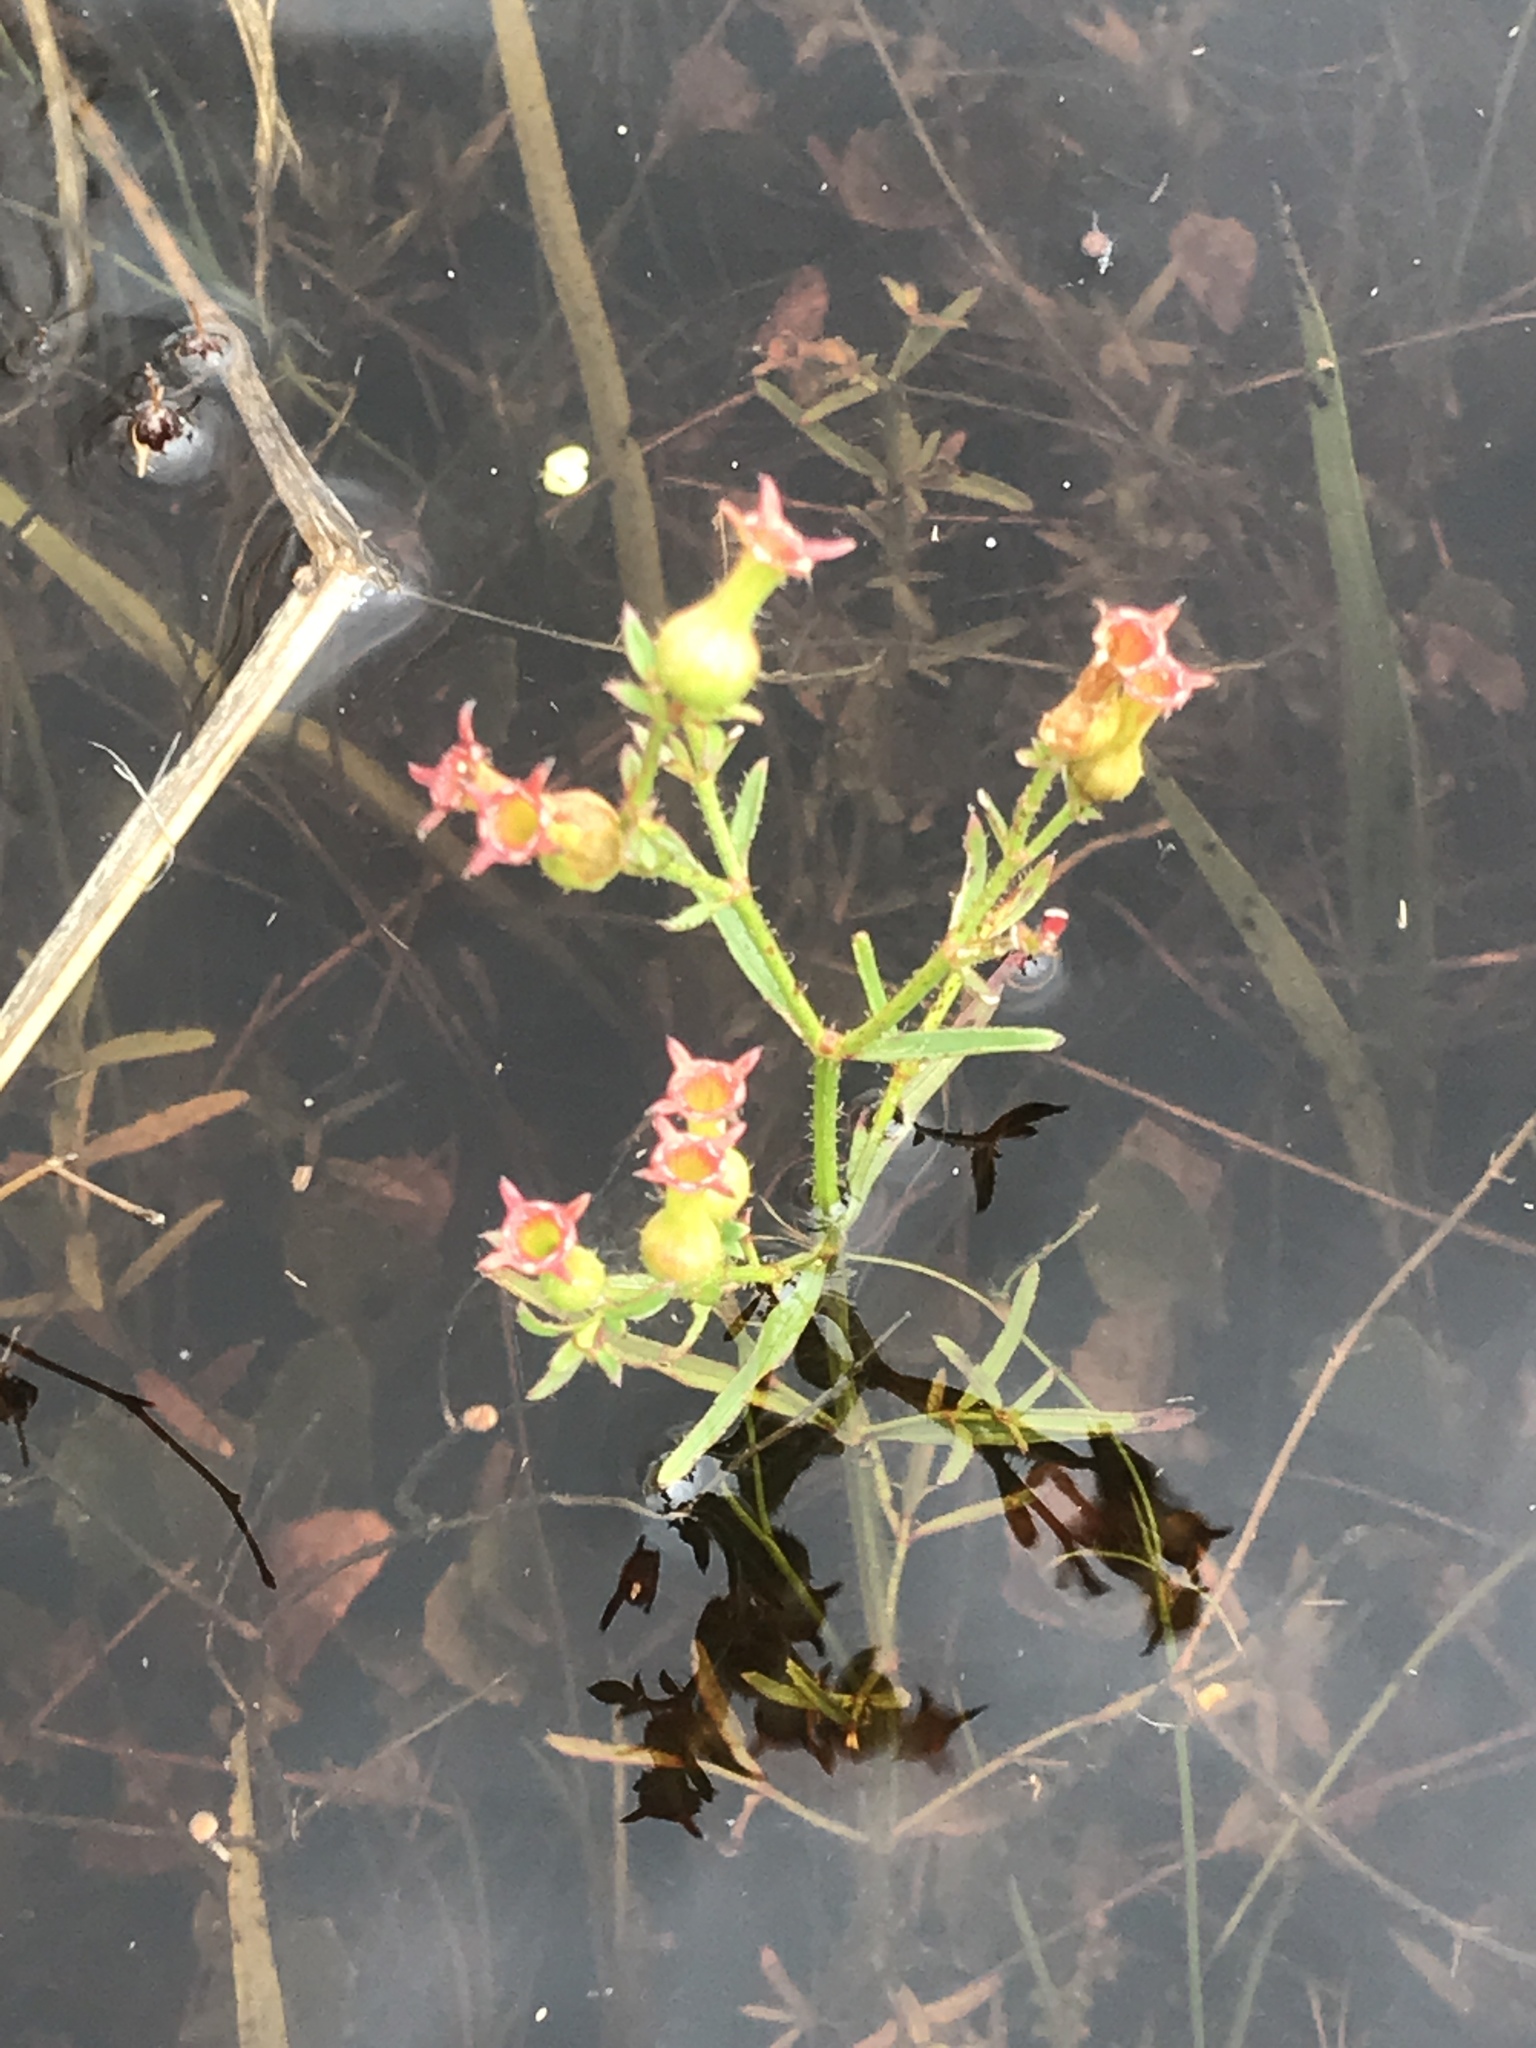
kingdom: Plantae
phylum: Tracheophyta
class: Magnoliopsida
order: Myrtales
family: Melastomataceae
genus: Rhexia
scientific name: Rhexia cubensis
